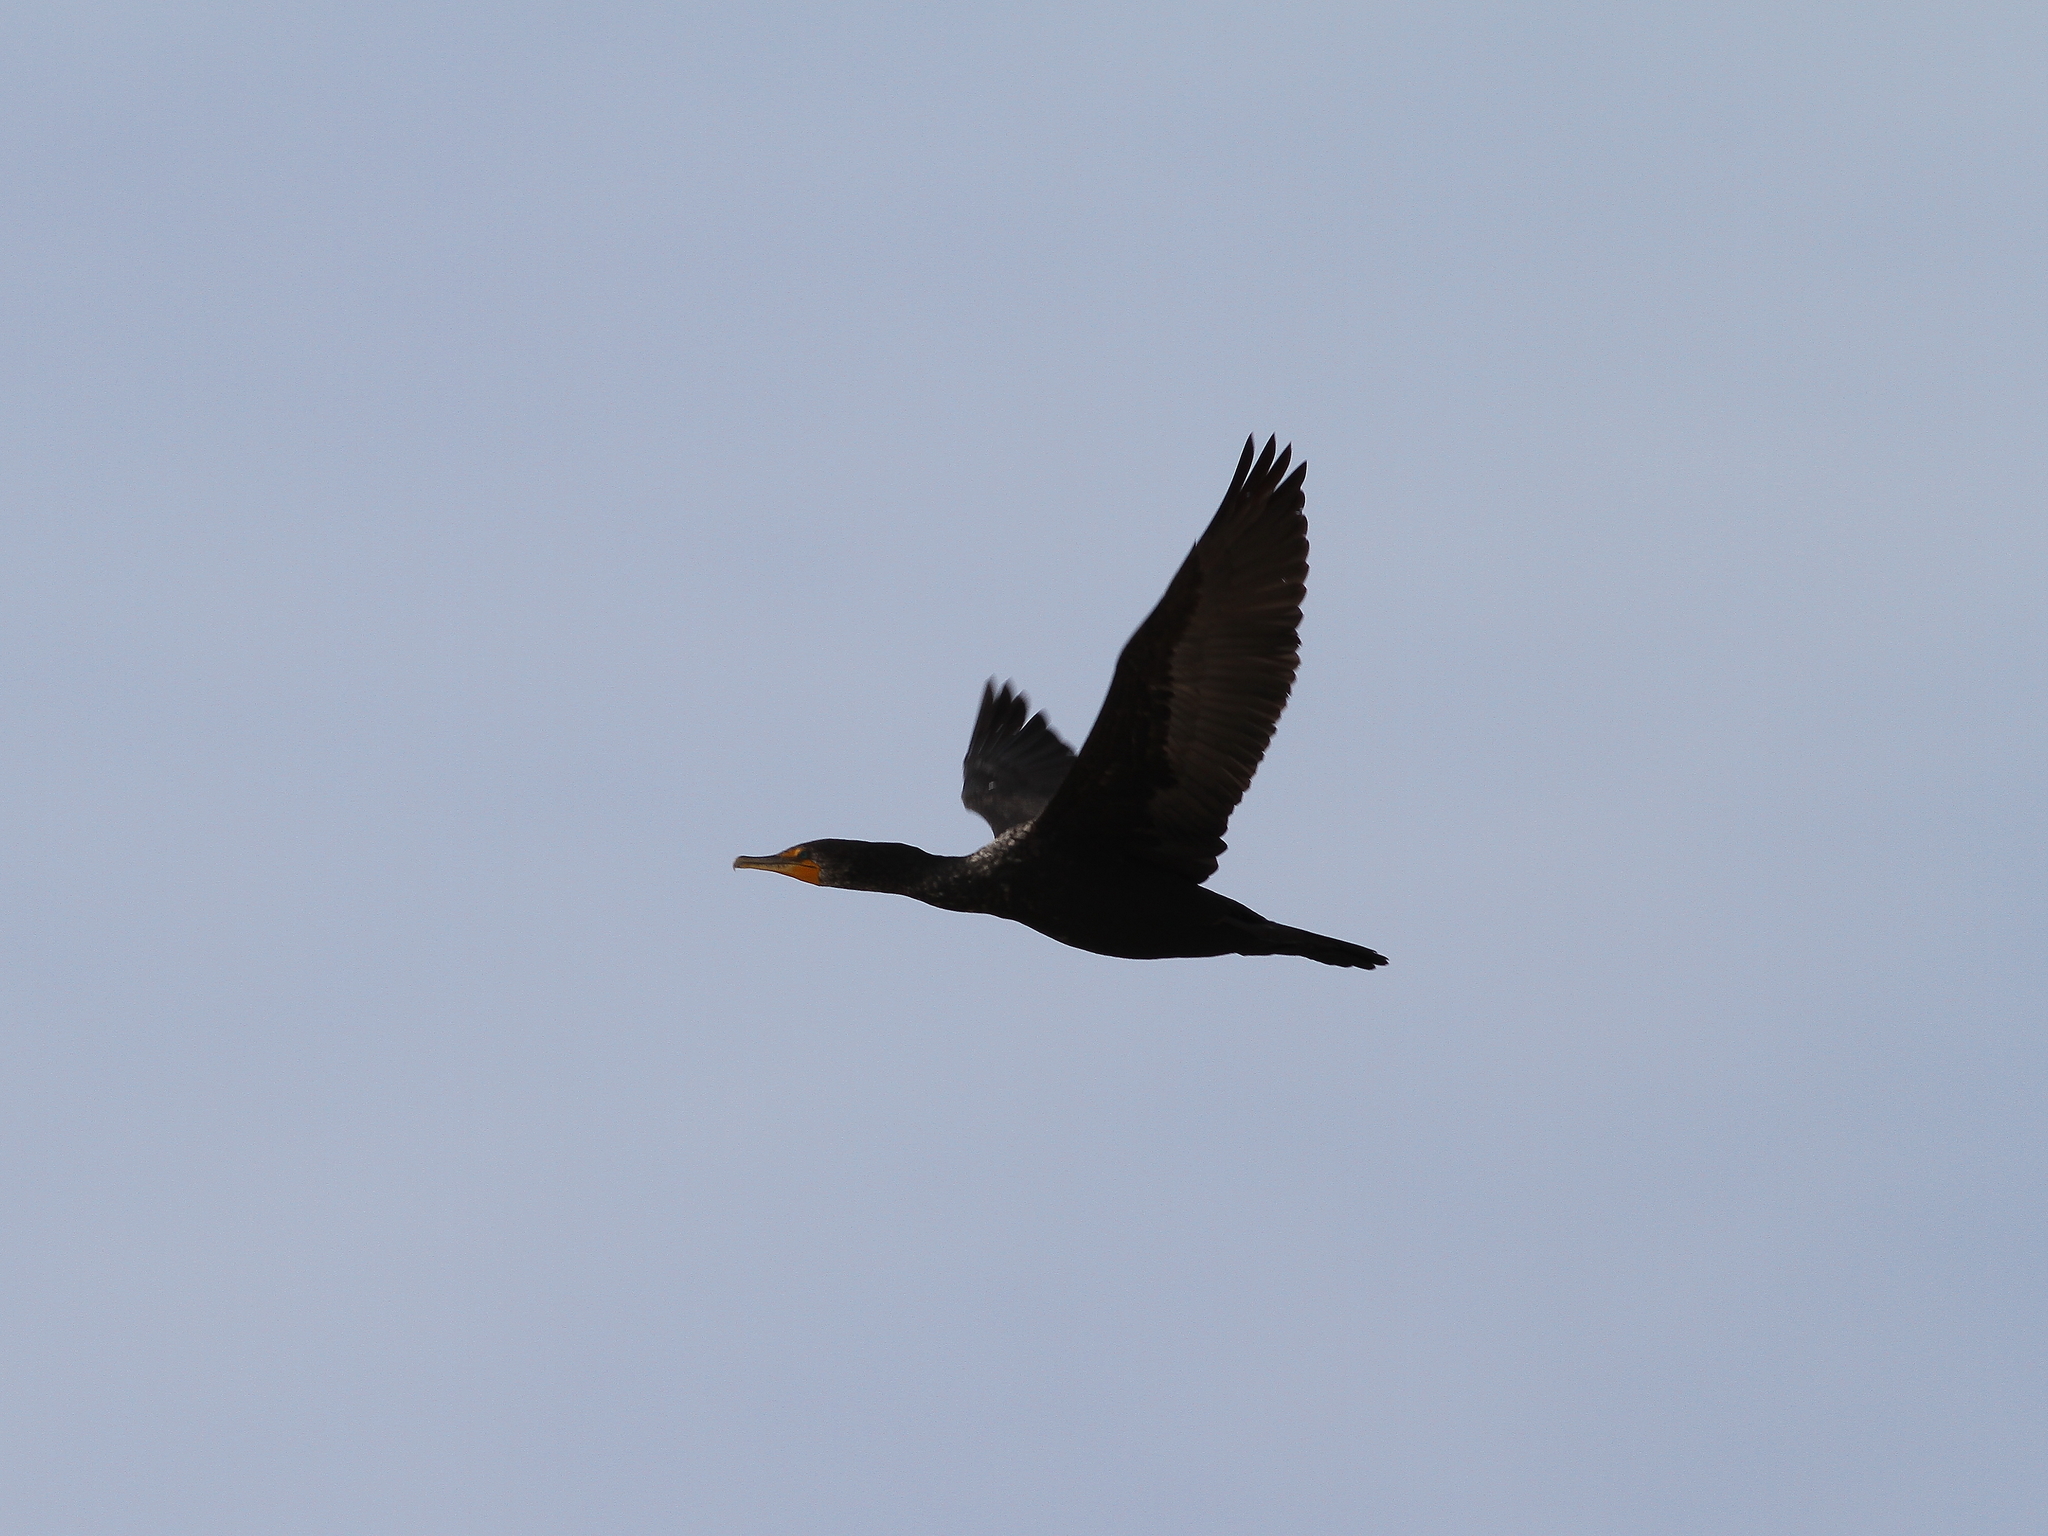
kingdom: Animalia
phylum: Chordata
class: Aves
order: Suliformes
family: Phalacrocoracidae
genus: Phalacrocorax
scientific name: Phalacrocorax auritus
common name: Double-crested cormorant
